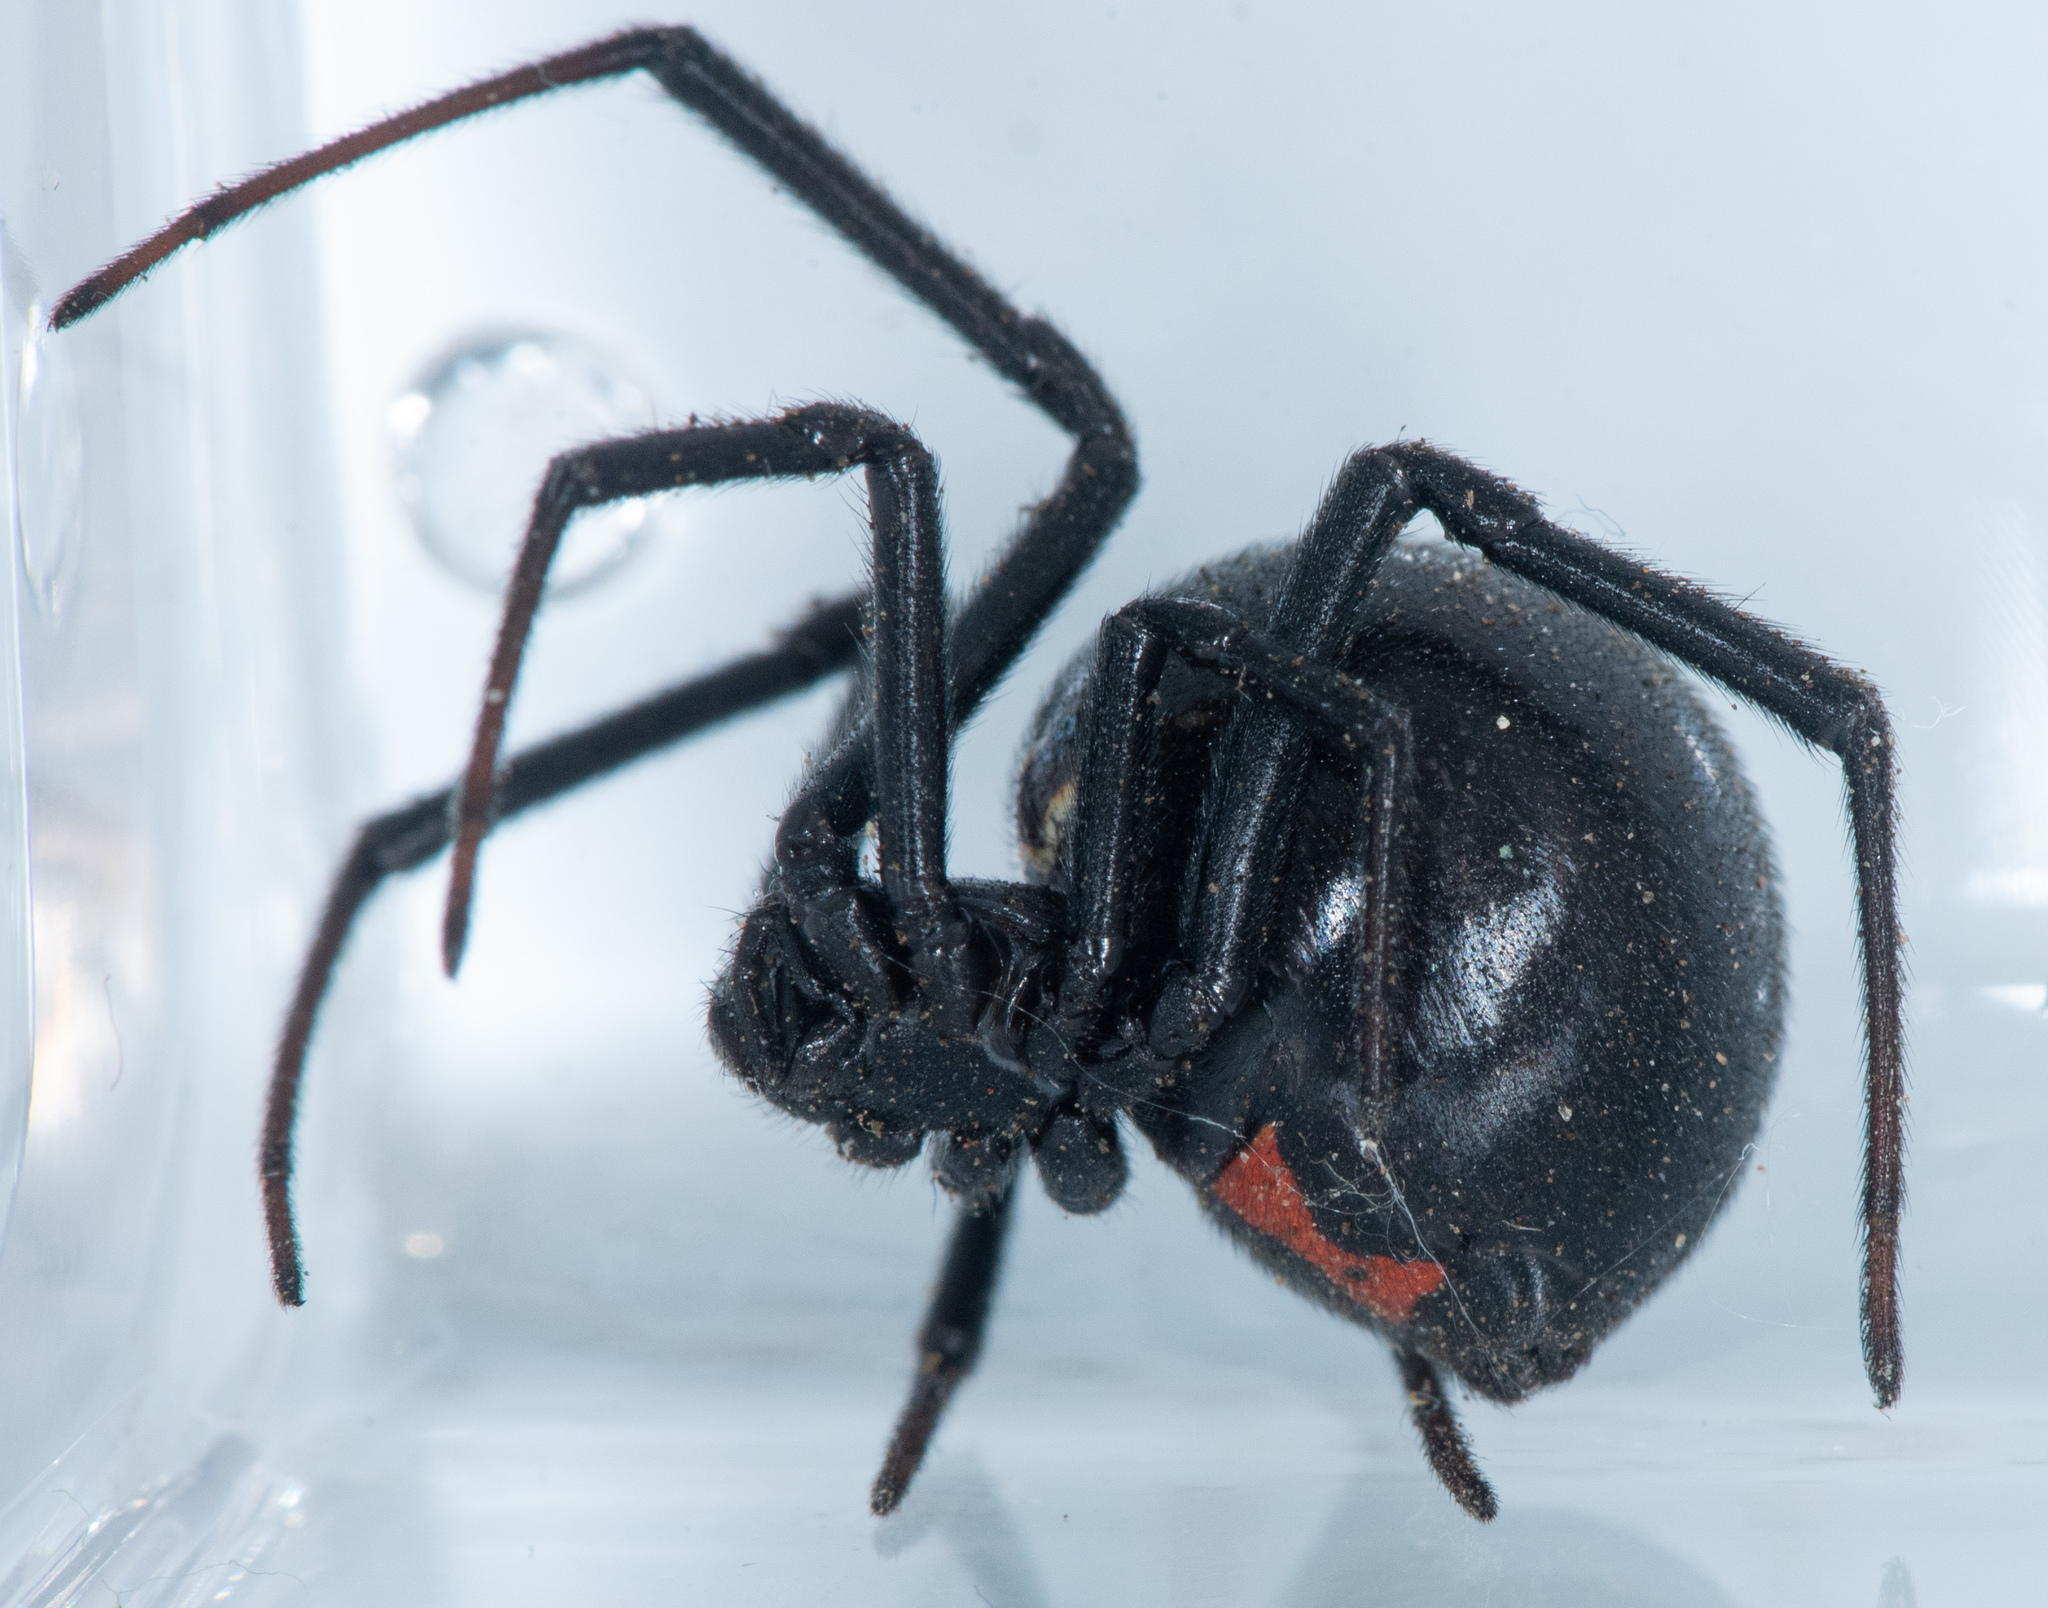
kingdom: Animalia
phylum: Arthropoda
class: Arachnida
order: Araneae
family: Theridiidae
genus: Latrodectus
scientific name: Latrodectus hesperus
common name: Western black widow
